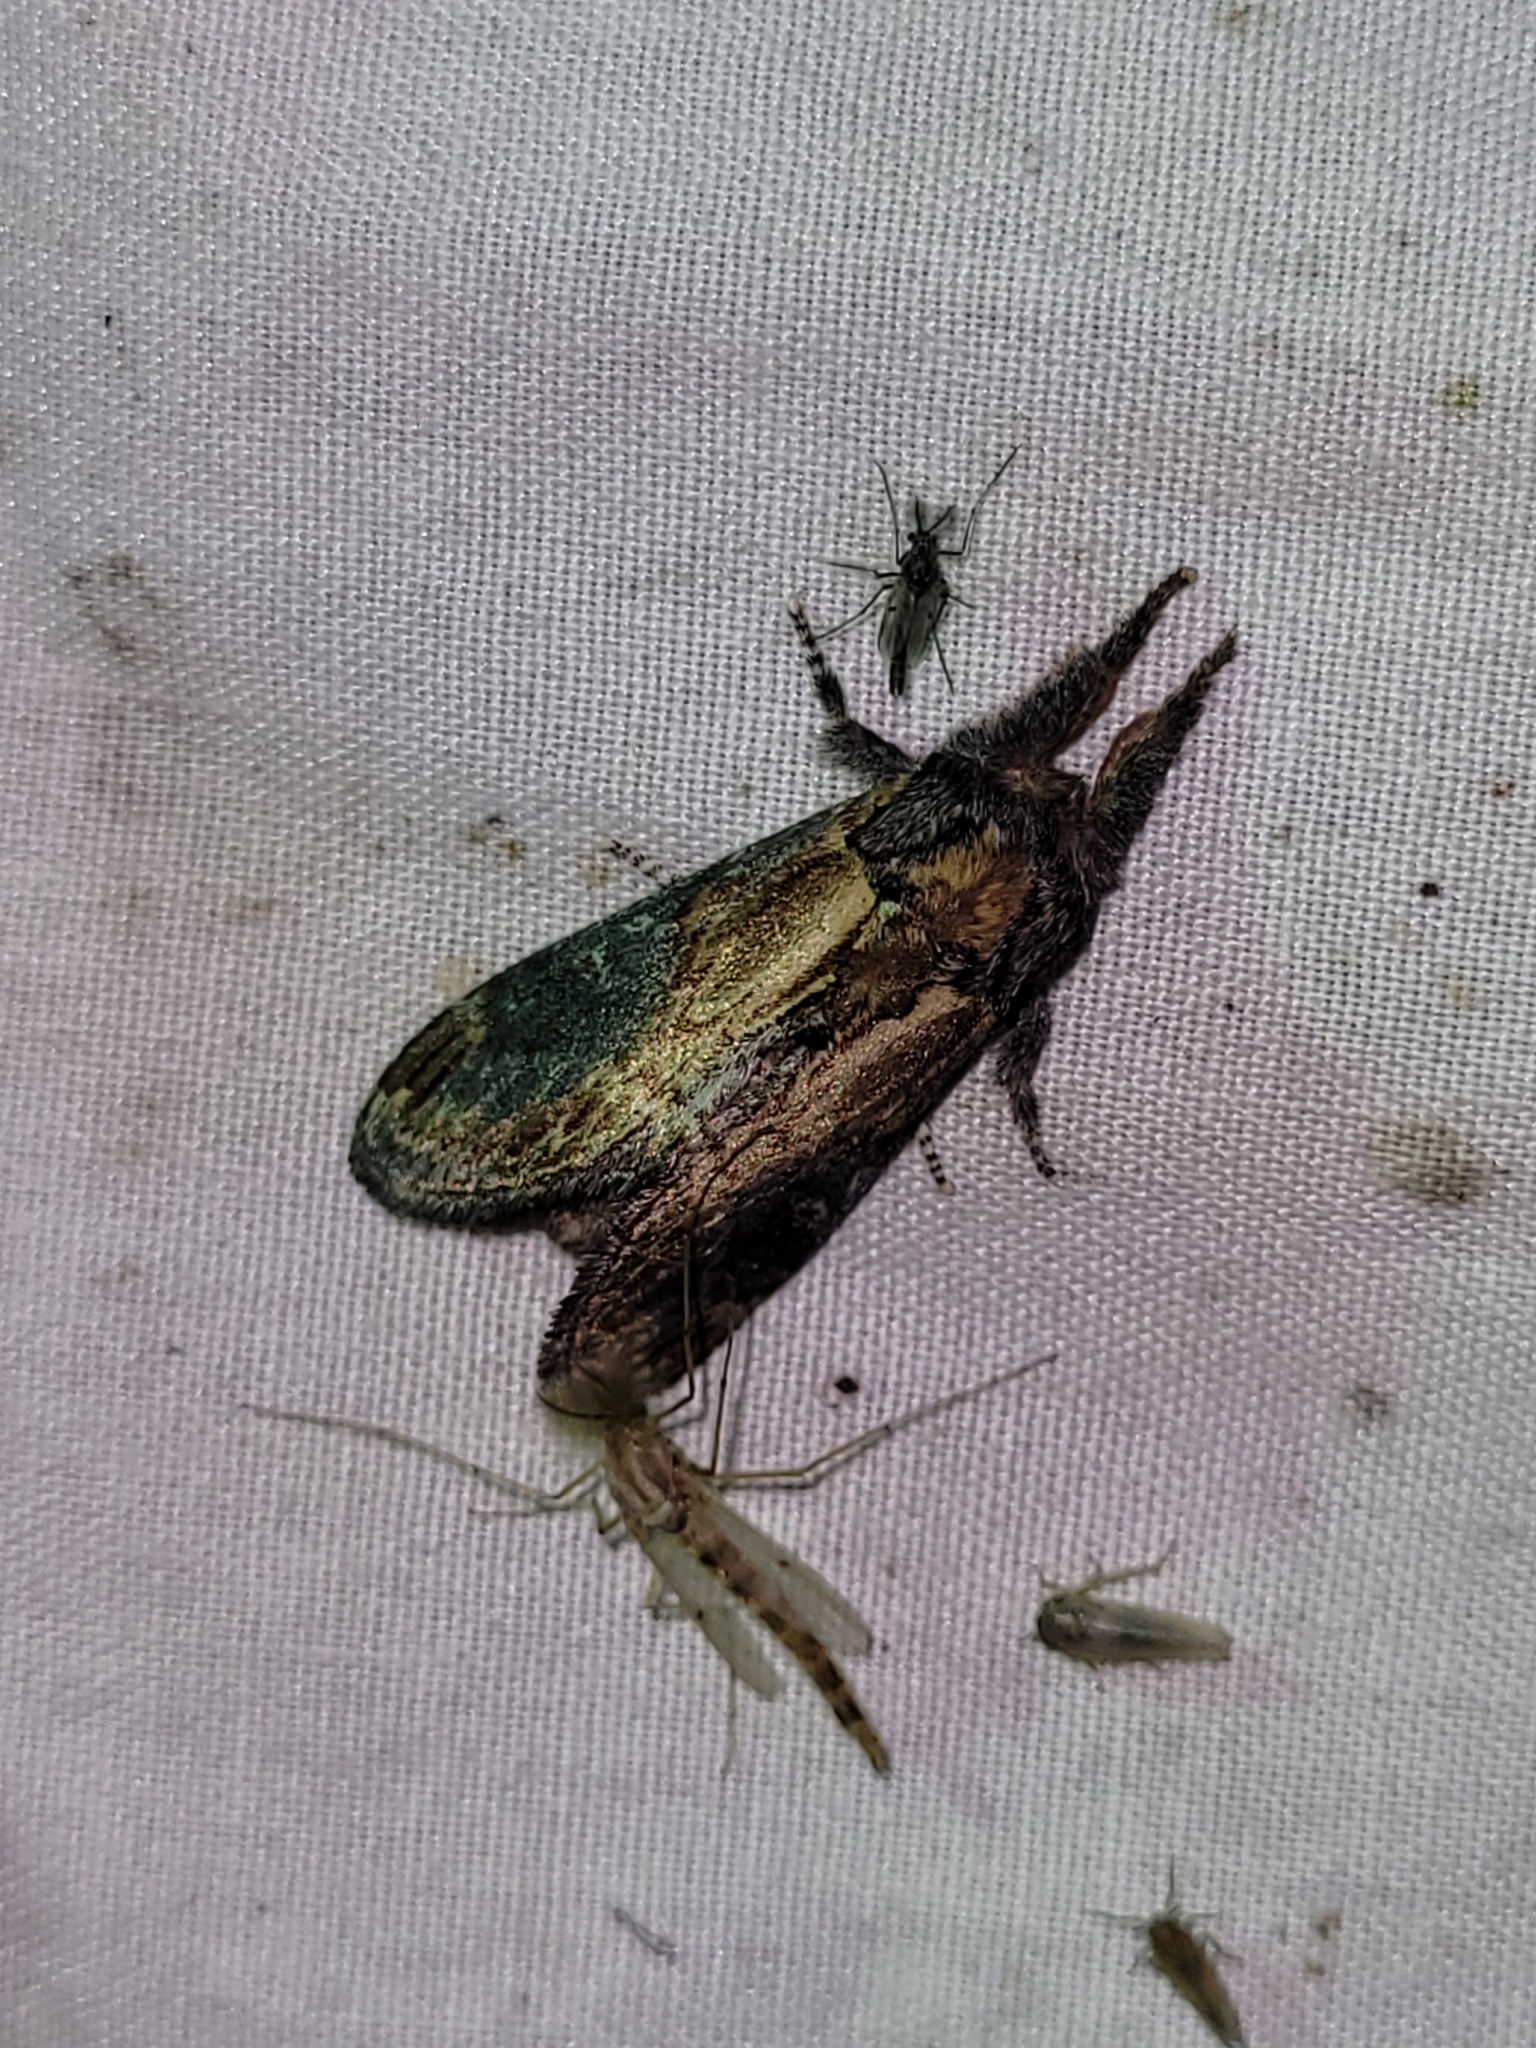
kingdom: Animalia
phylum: Arthropoda
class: Insecta
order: Lepidoptera
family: Notodontidae
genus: Notodonta
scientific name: Notodonta
